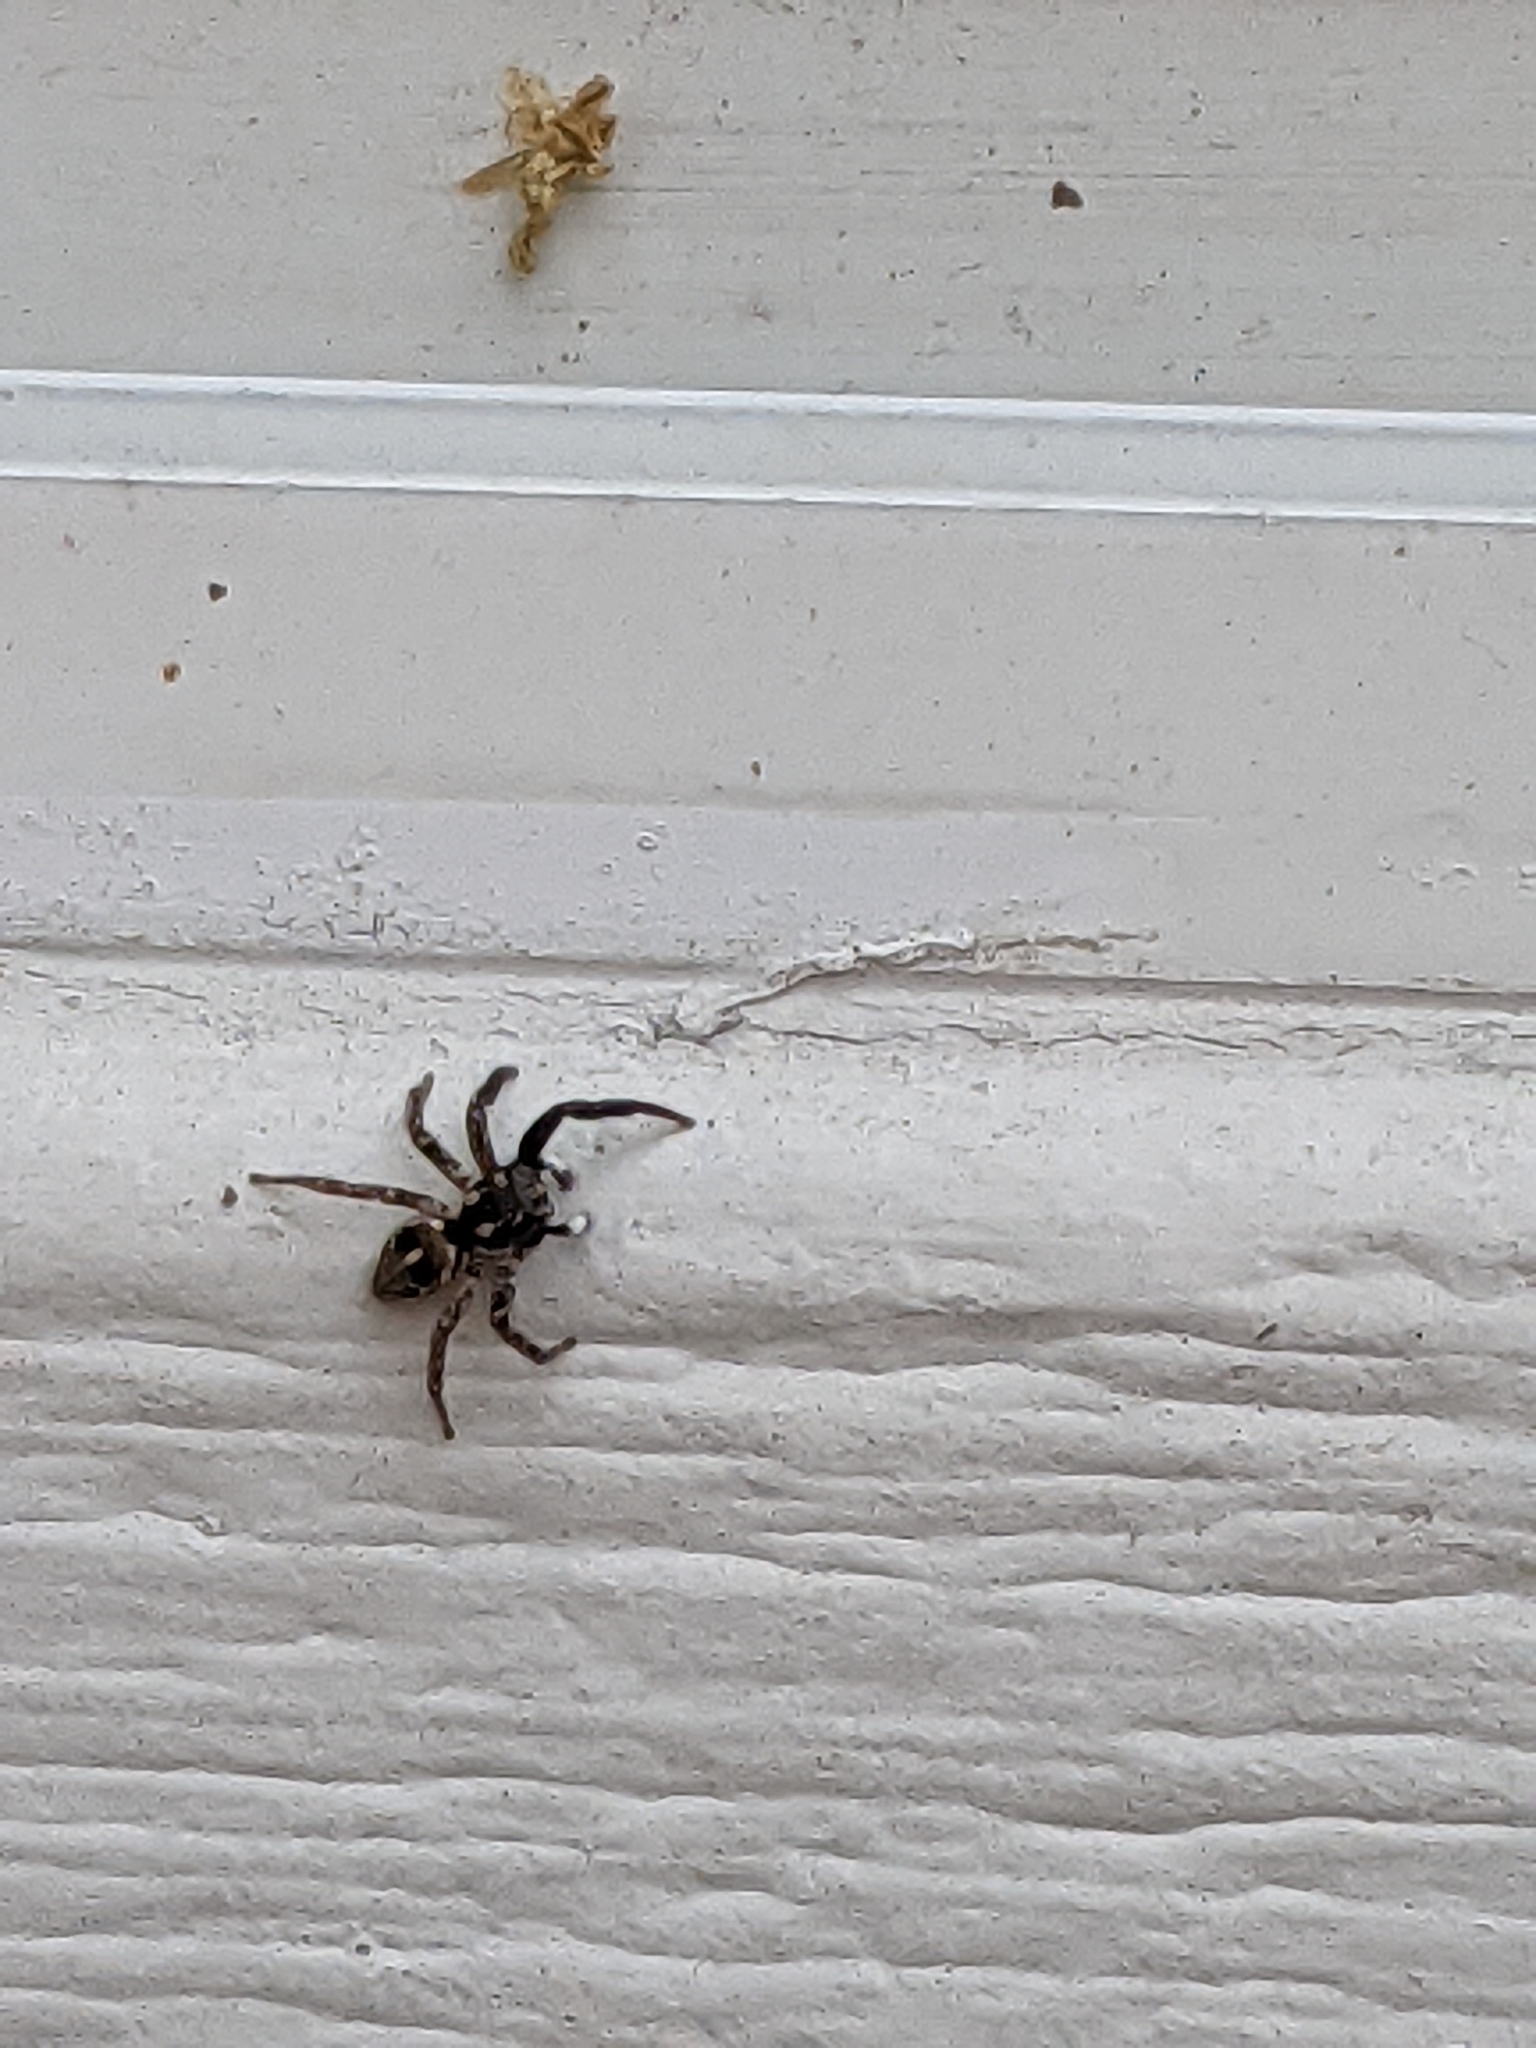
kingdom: Animalia
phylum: Arthropoda
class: Arachnida
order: Araneae
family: Salticidae
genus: Anasaitis
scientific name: Anasaitis canosa
